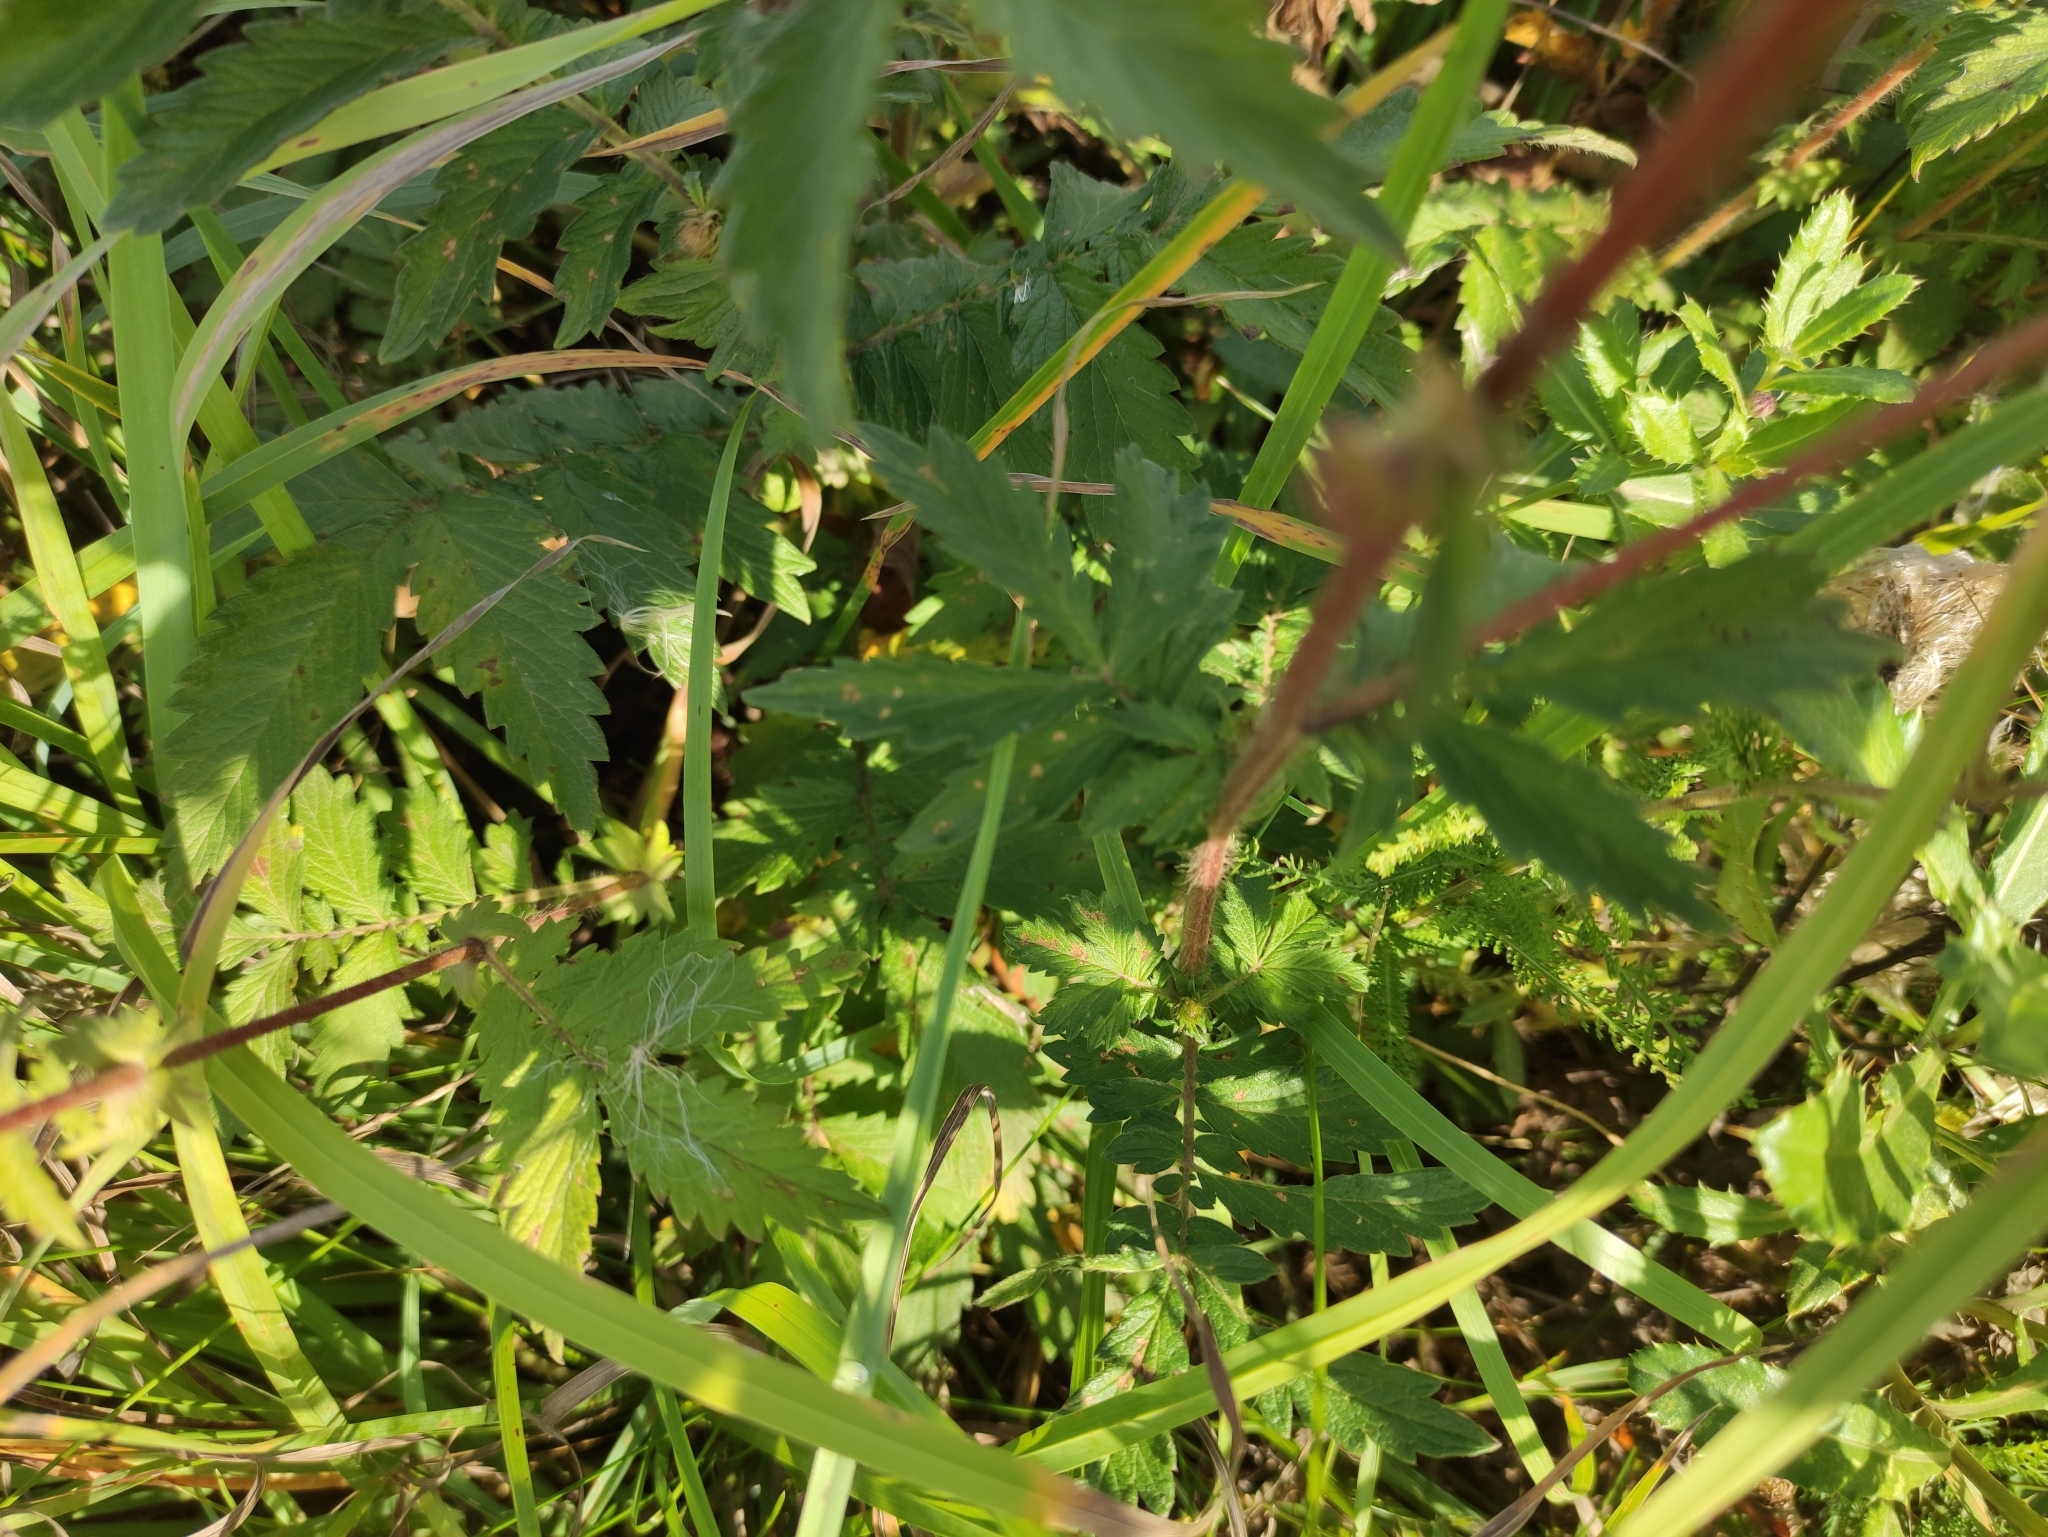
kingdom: Plantae
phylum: Tracheophyta
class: Magnoliopsida
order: Rosales
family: Rosaceae
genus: Agrimonia
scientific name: Agrimonia eupatoria
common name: Agrimony
